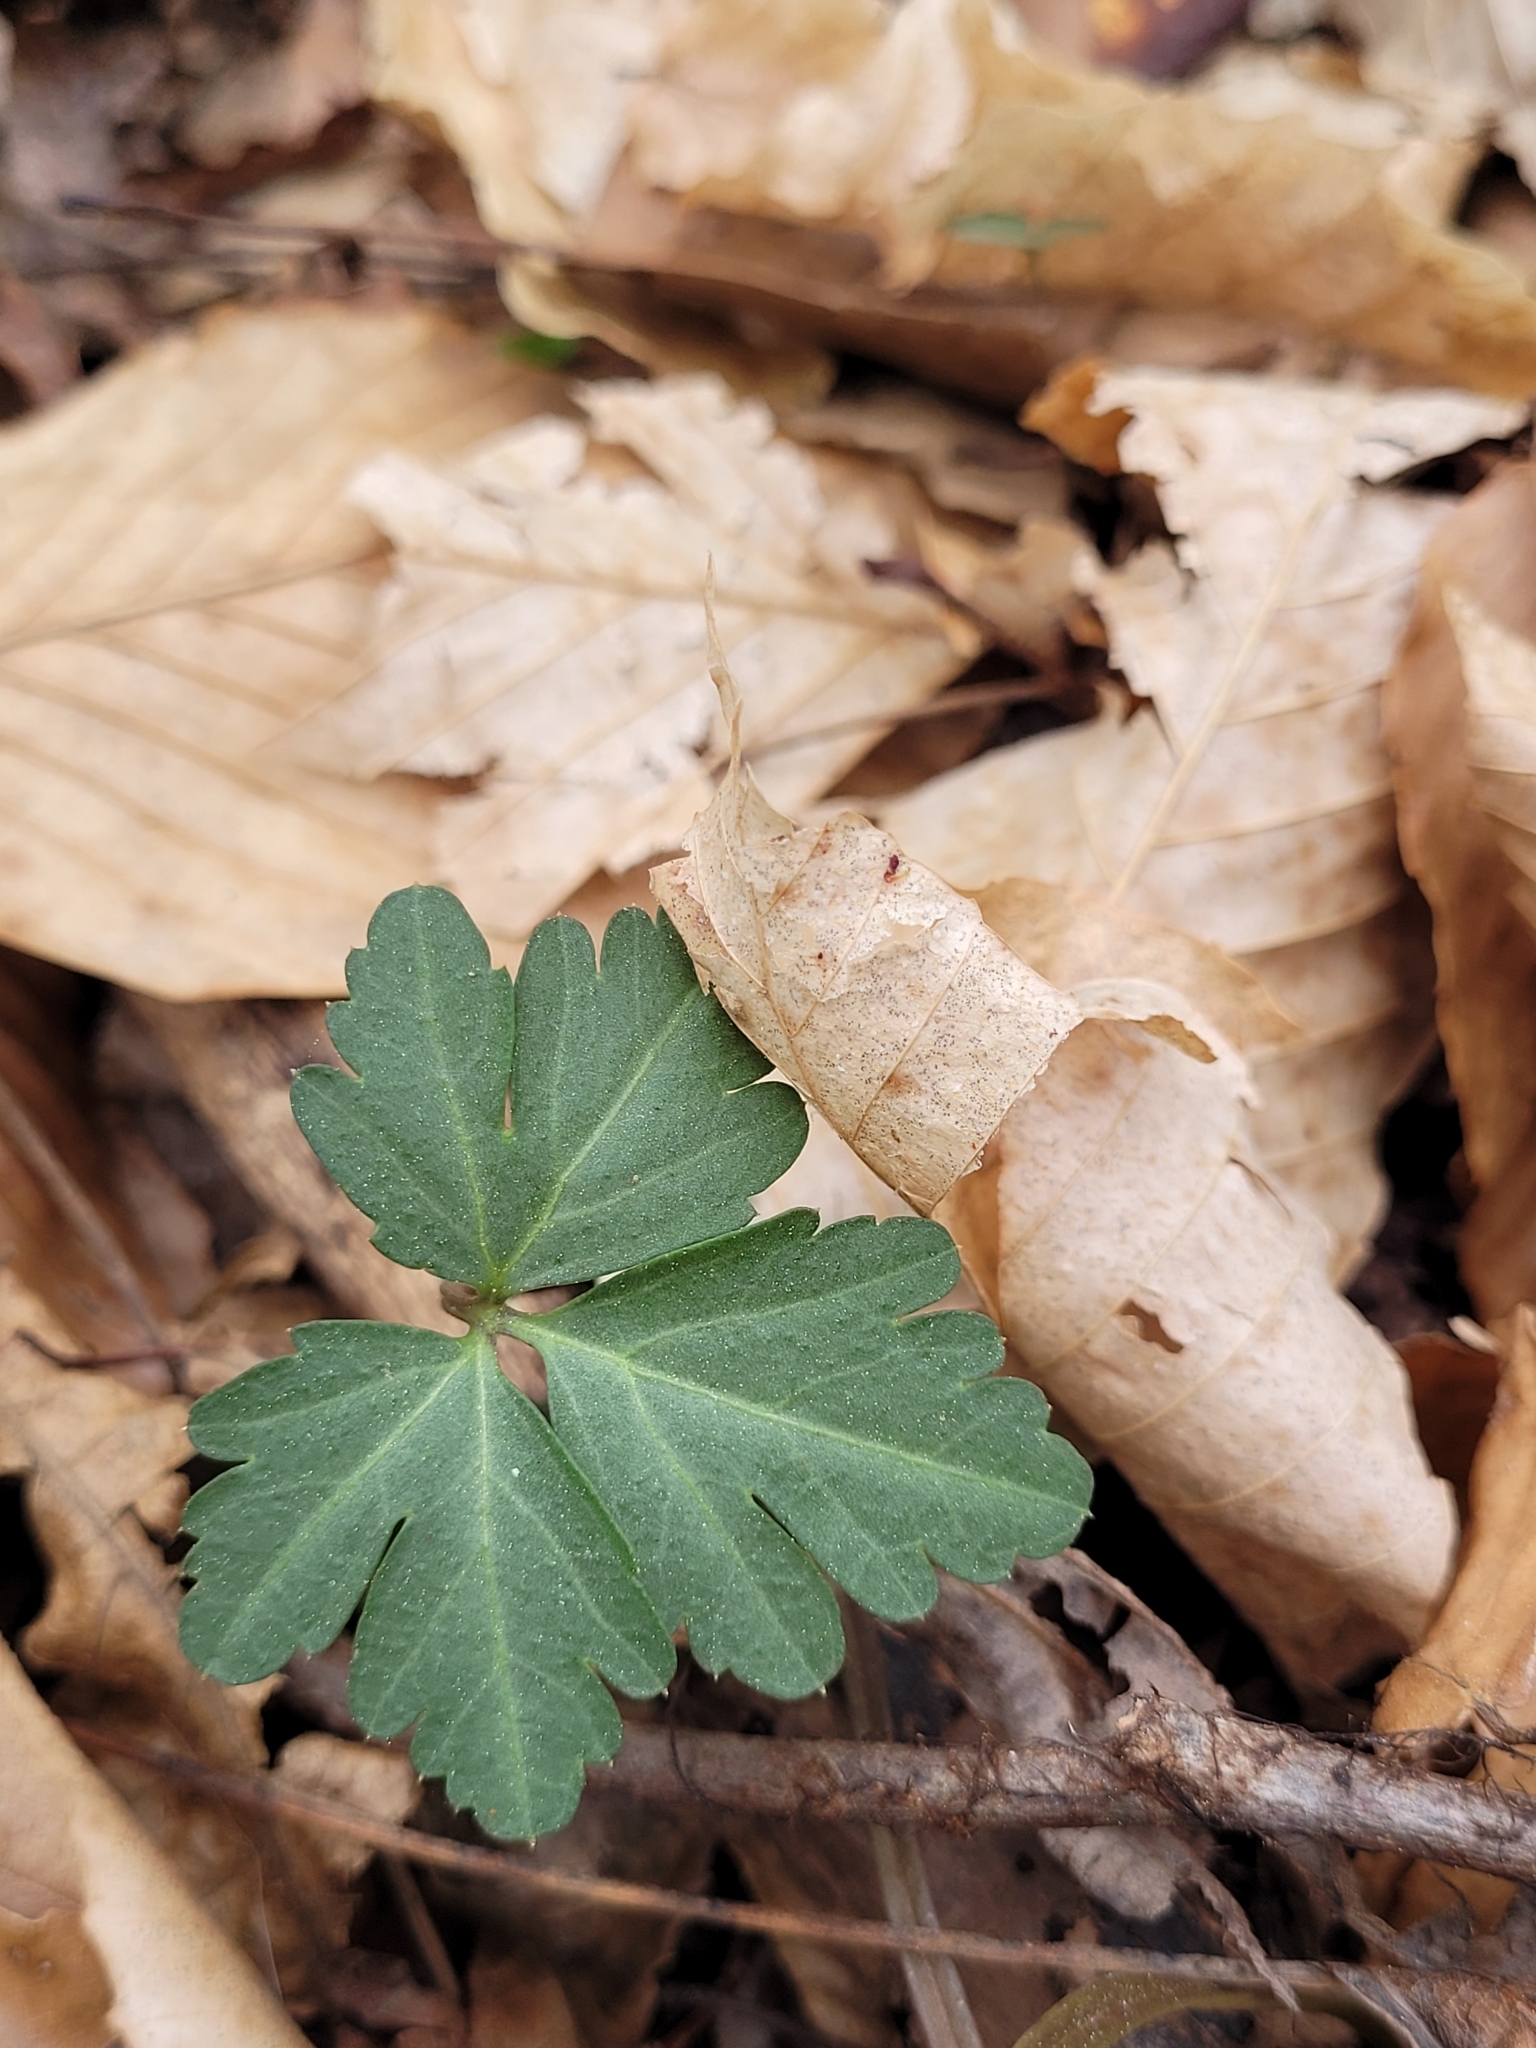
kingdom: Plantae
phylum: Tracheophyta
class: Magnoliopsida
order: Rosales
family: Rosaceae
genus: Geum
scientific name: Geum canadense
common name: White avens
